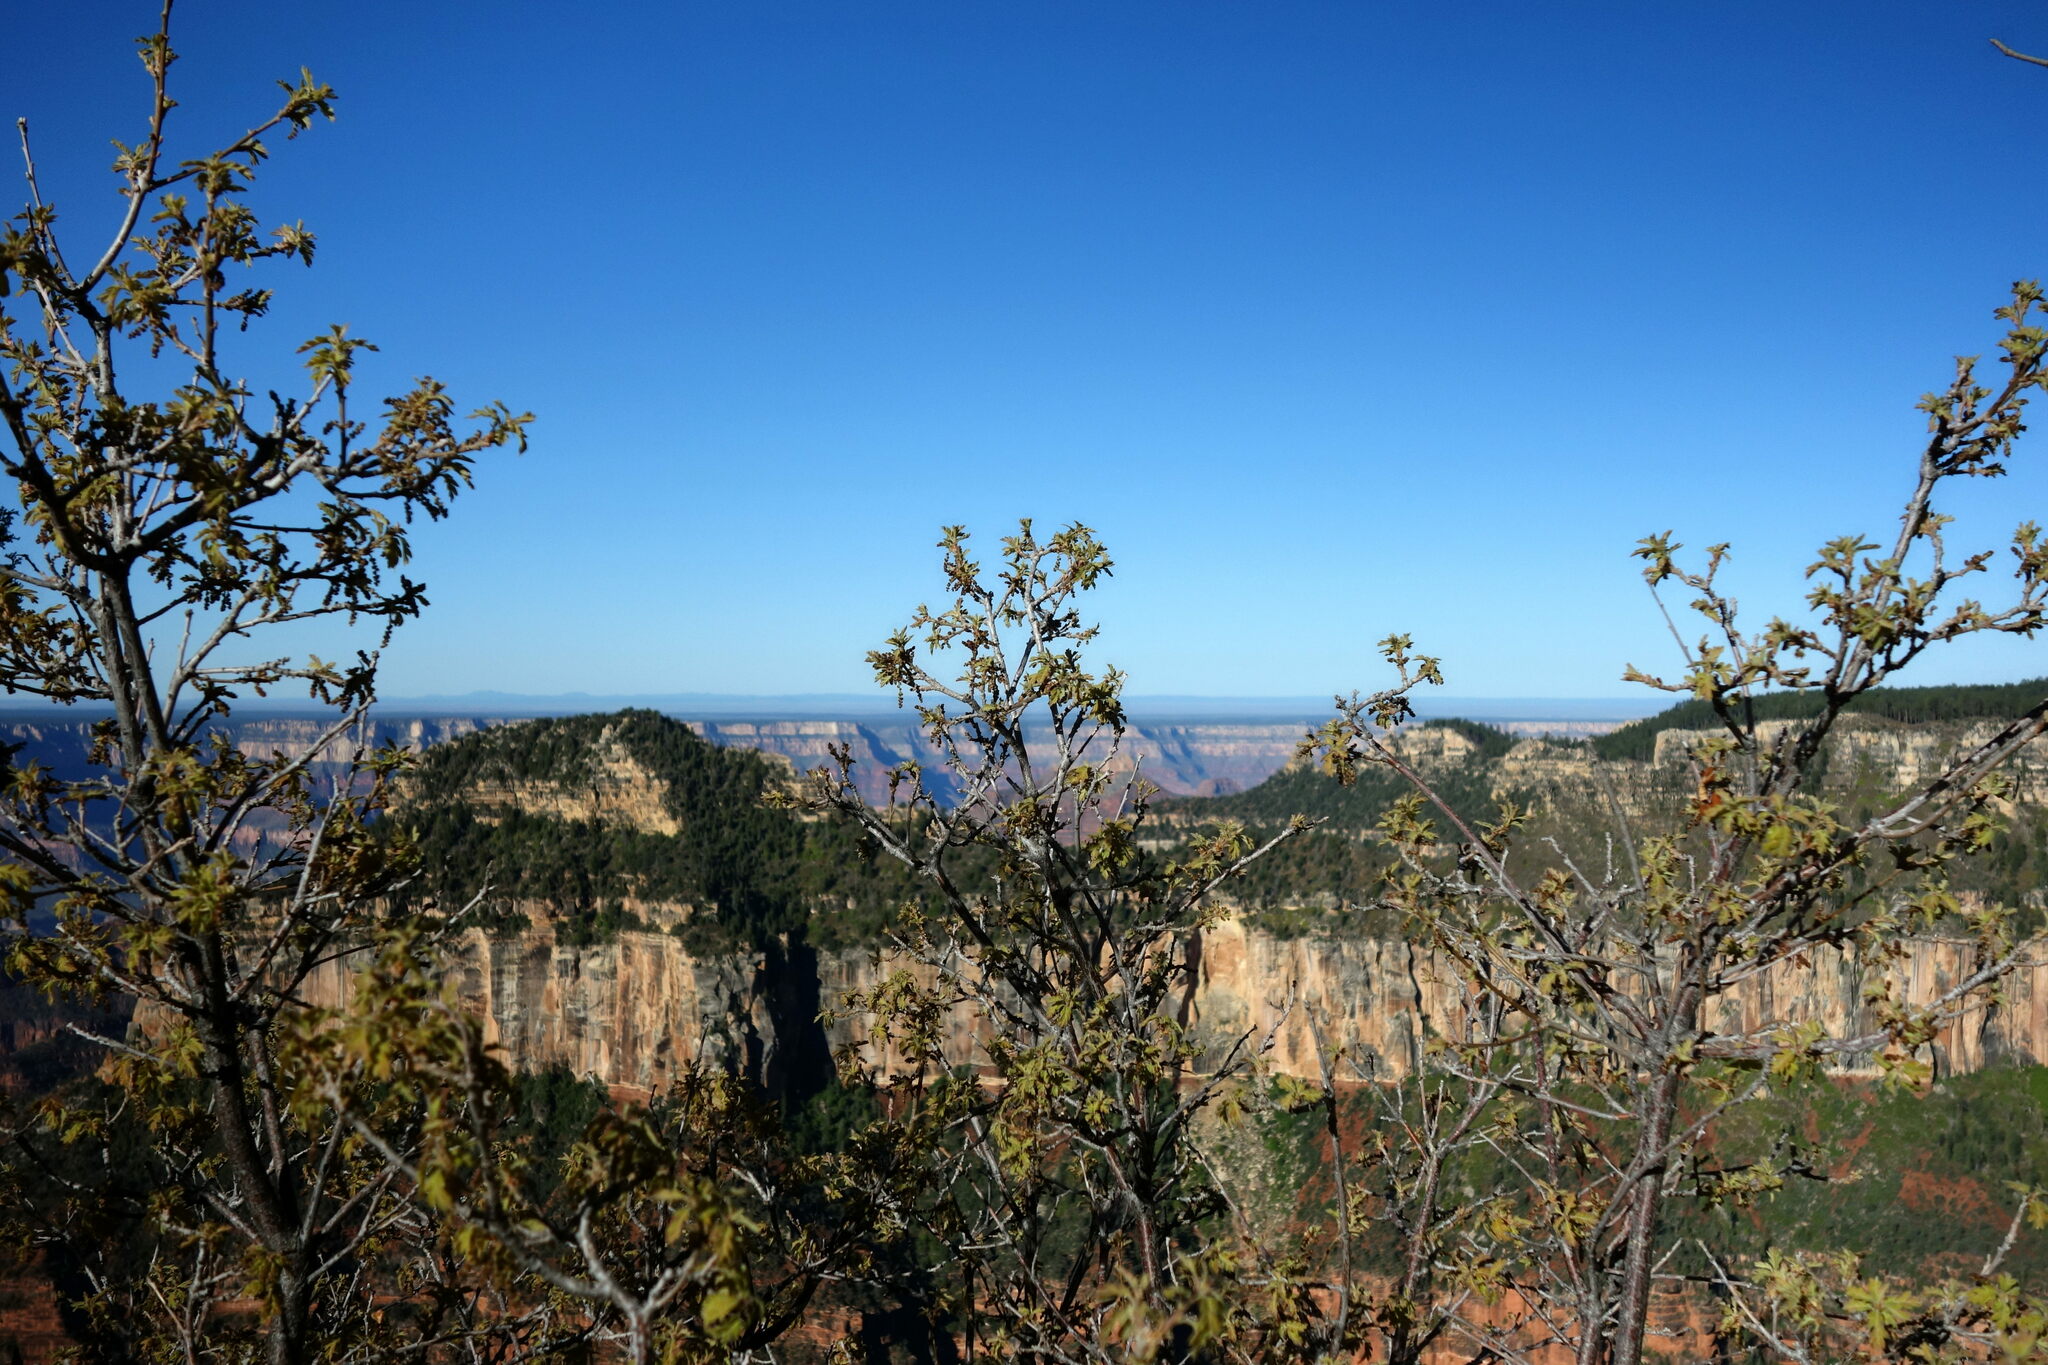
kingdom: Plantae
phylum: Tracheophyta
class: Magnoliopsida
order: Fagales
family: Fagaceae
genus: Quercus
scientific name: Quercus gambelii
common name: Gambel oak
